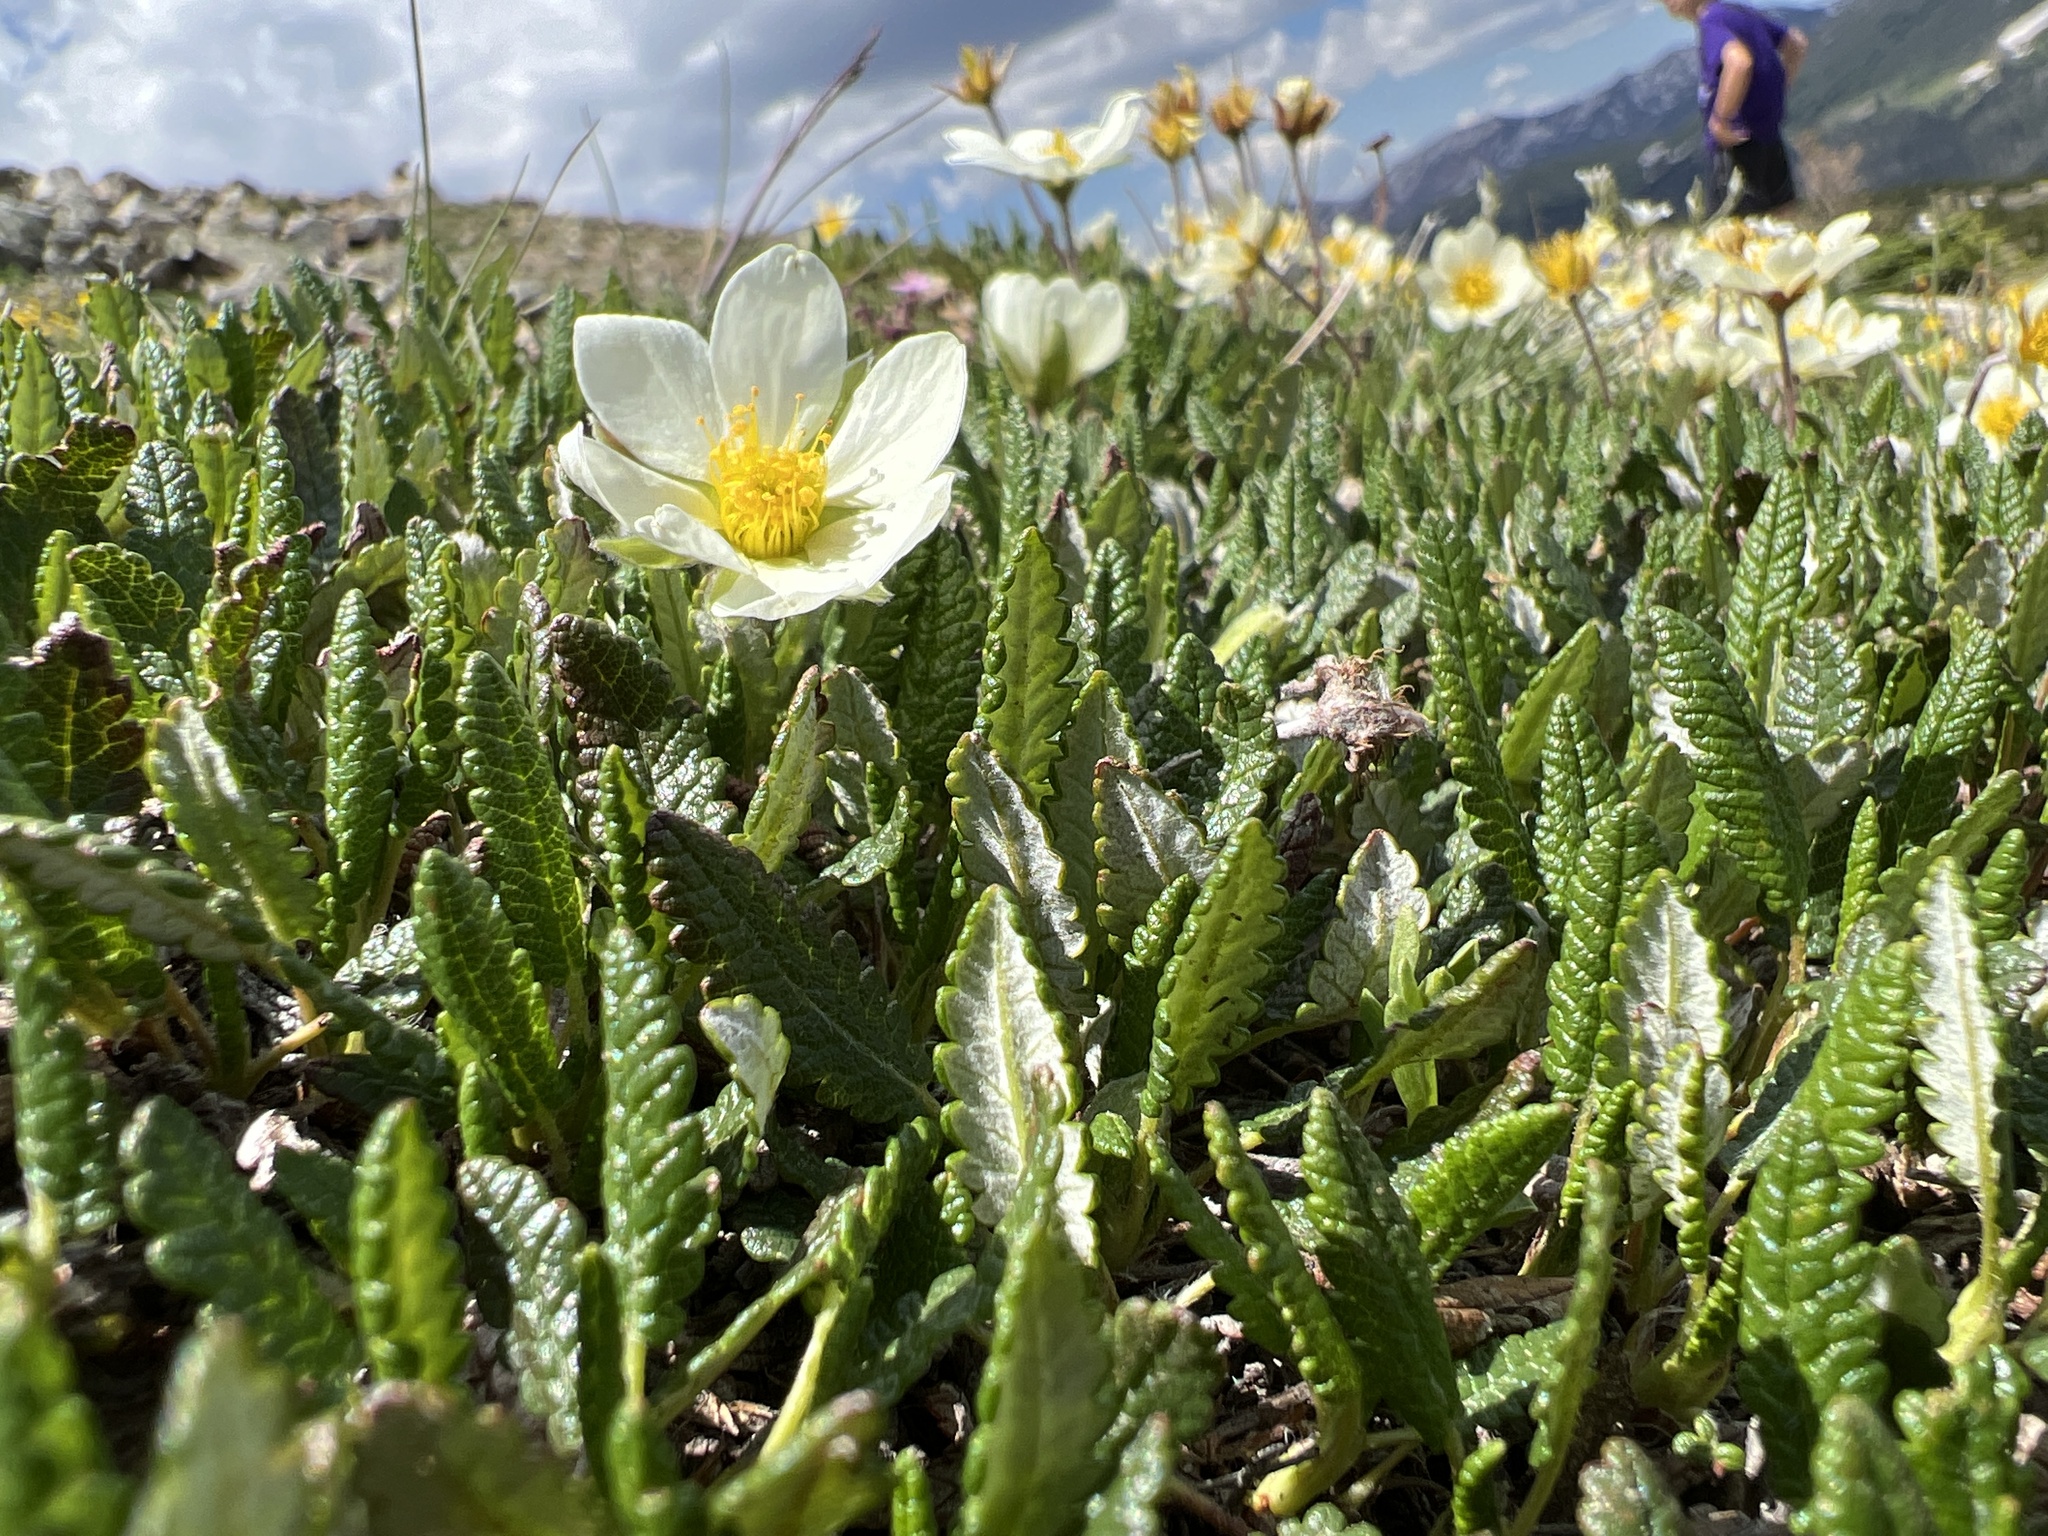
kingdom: Plantae
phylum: Tracheophyta
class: Magnoliopsida
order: Rosales
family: Rosaceae
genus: Dryas
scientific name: Dryas octopetala
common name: Eight-petal mountain-avens
